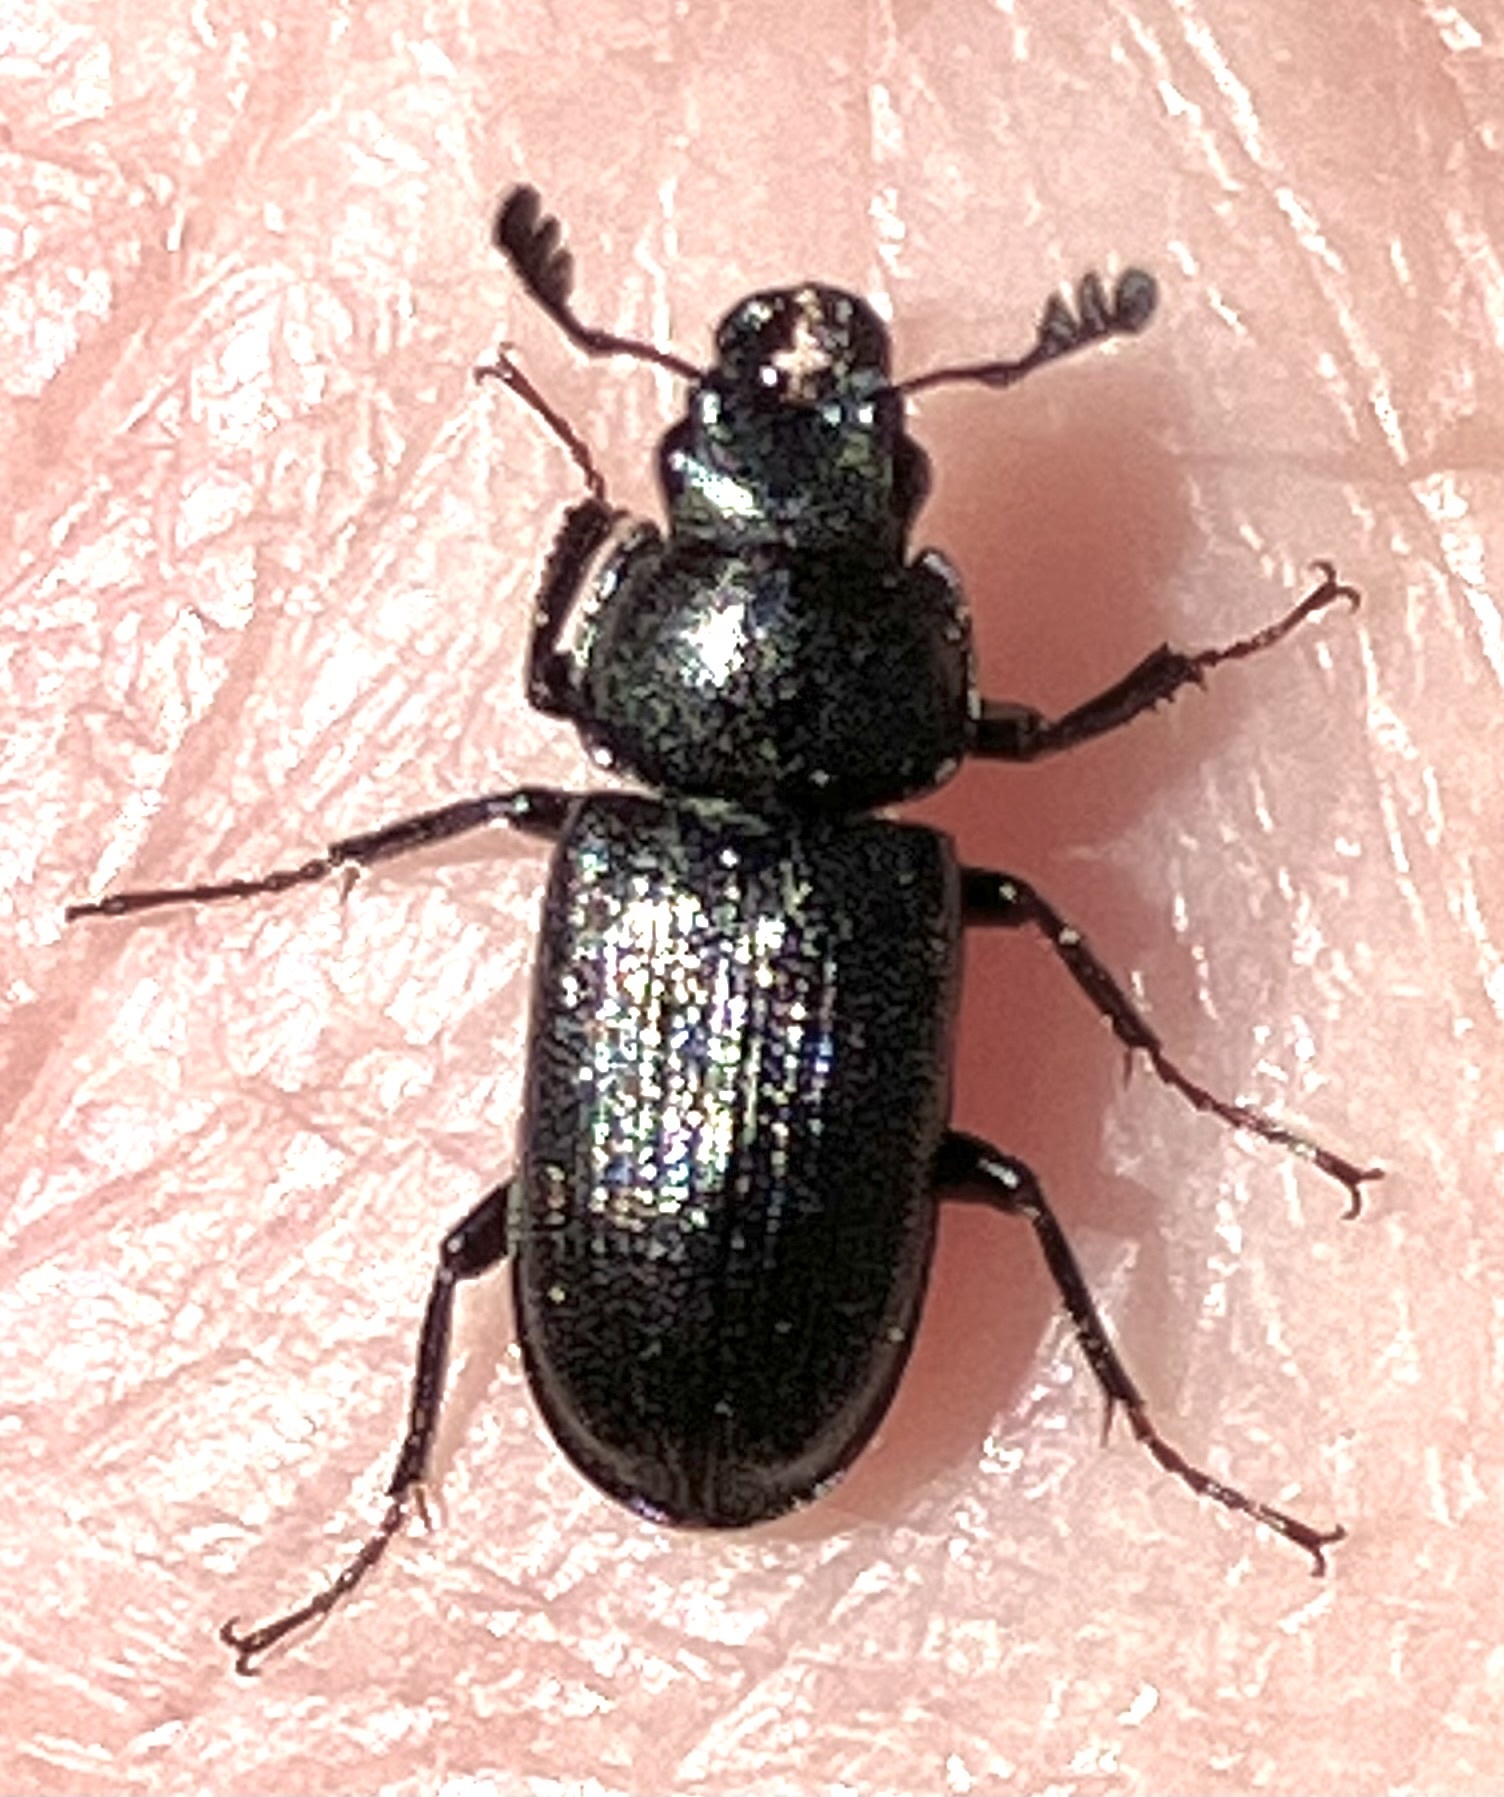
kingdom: Animalia
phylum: Arthropoda
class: Insecta
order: Coleoptera
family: Lucanidae
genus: Platycerus
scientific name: Platycerus quercus
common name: Oak stag beetle
